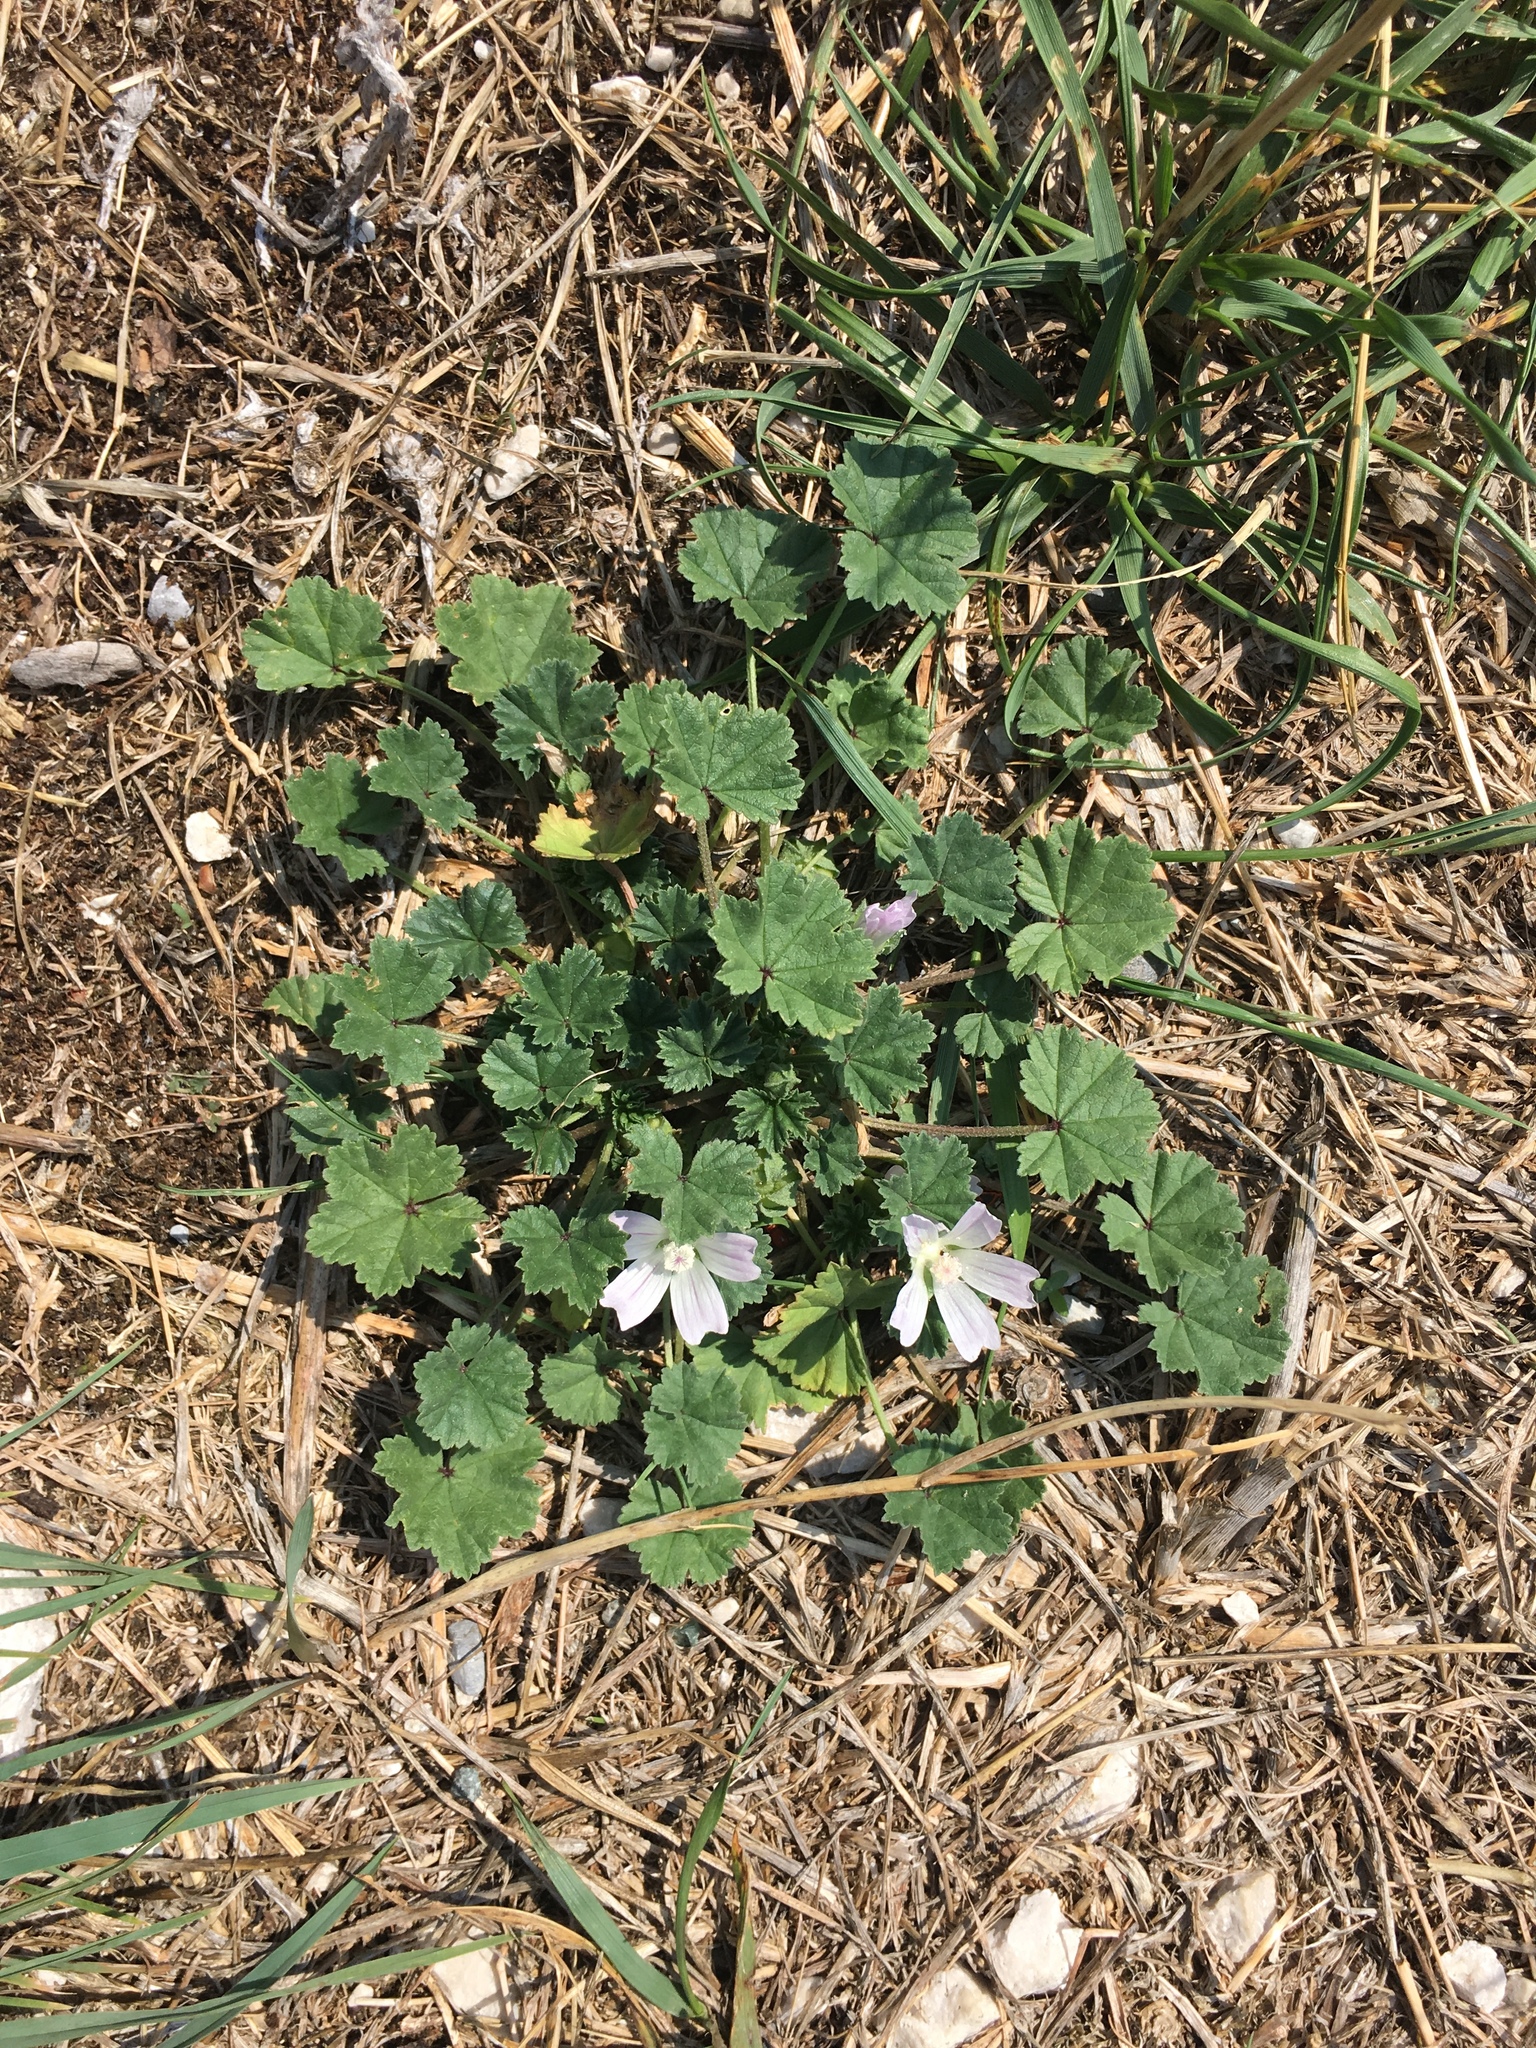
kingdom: Plantae
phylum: Tracheophyta
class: Magnoliopsida
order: Malvales
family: Malvaceae
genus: Malva
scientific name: Malva neglecta
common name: Common mallow
